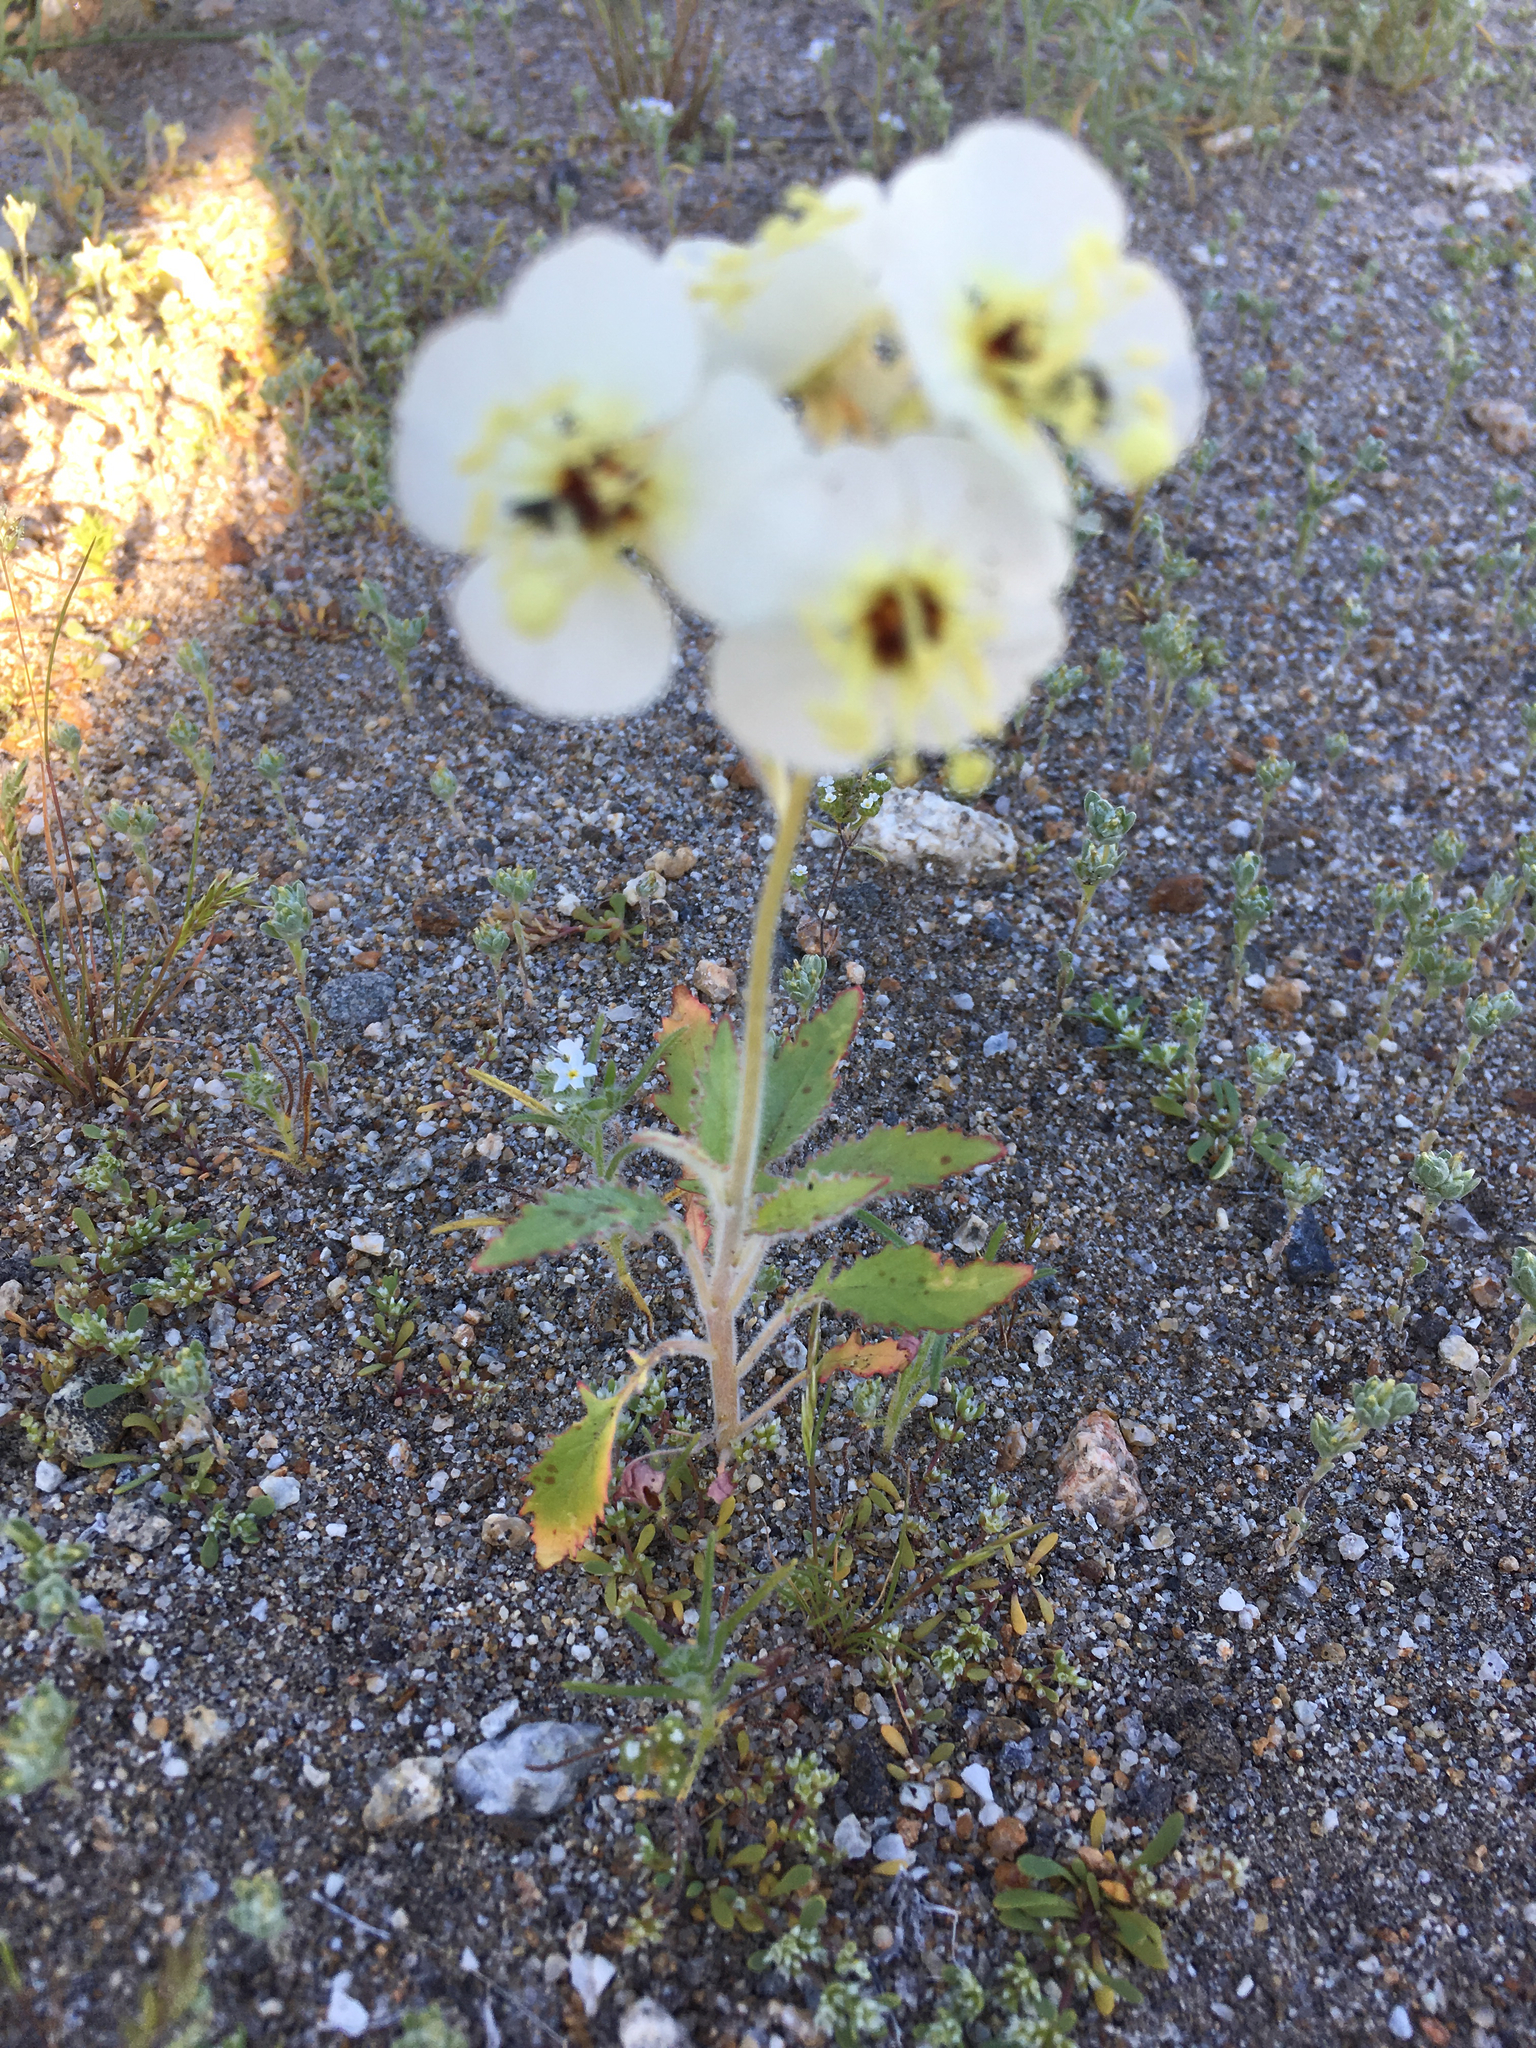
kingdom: Plantae
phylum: Tracheophyta
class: Magnoliopsida
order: Myrtales
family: Onagraceae
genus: Chylismia
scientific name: Chylismia claviformis
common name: Browneyes
